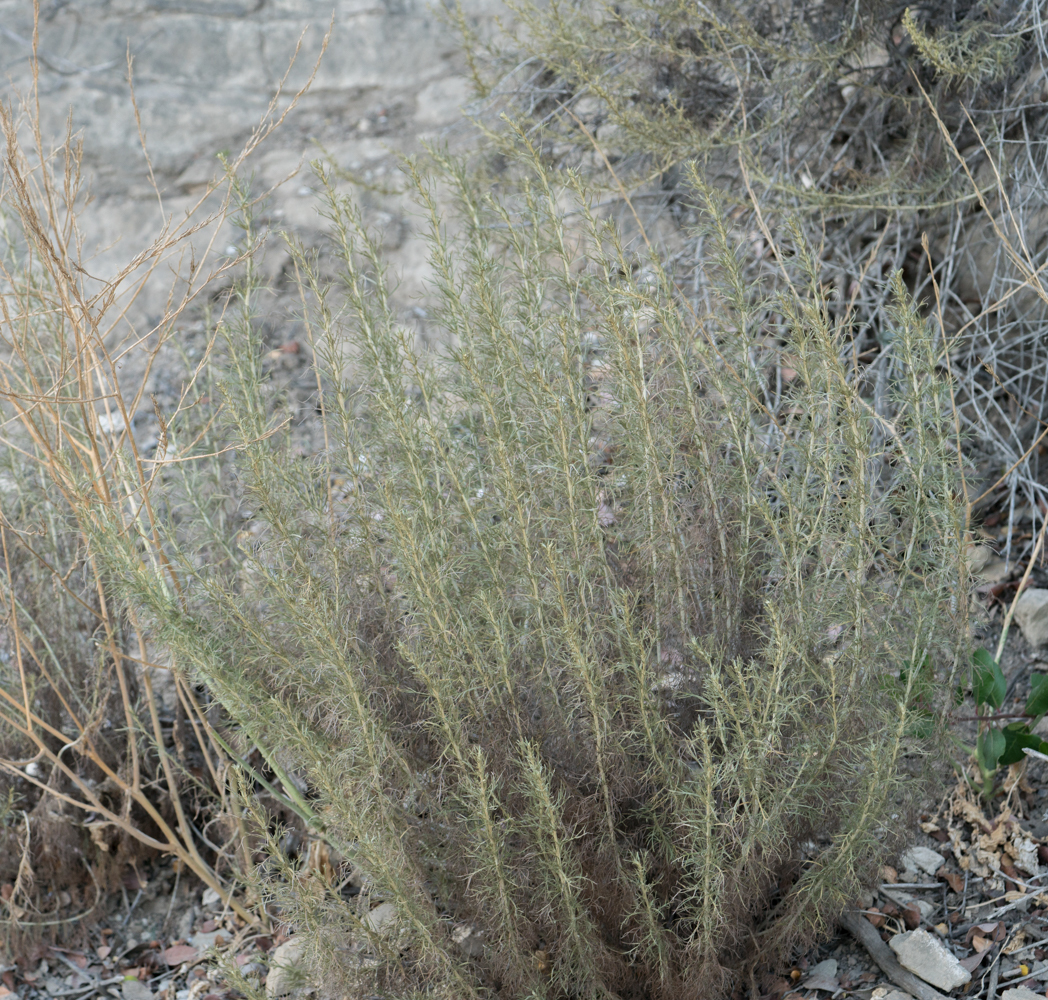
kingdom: Plantae
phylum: Tracheophyta
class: Magnoliopsida
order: Asterales
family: Asteraceae
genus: Artemisia
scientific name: Artemisia californica
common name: California sagebrush
